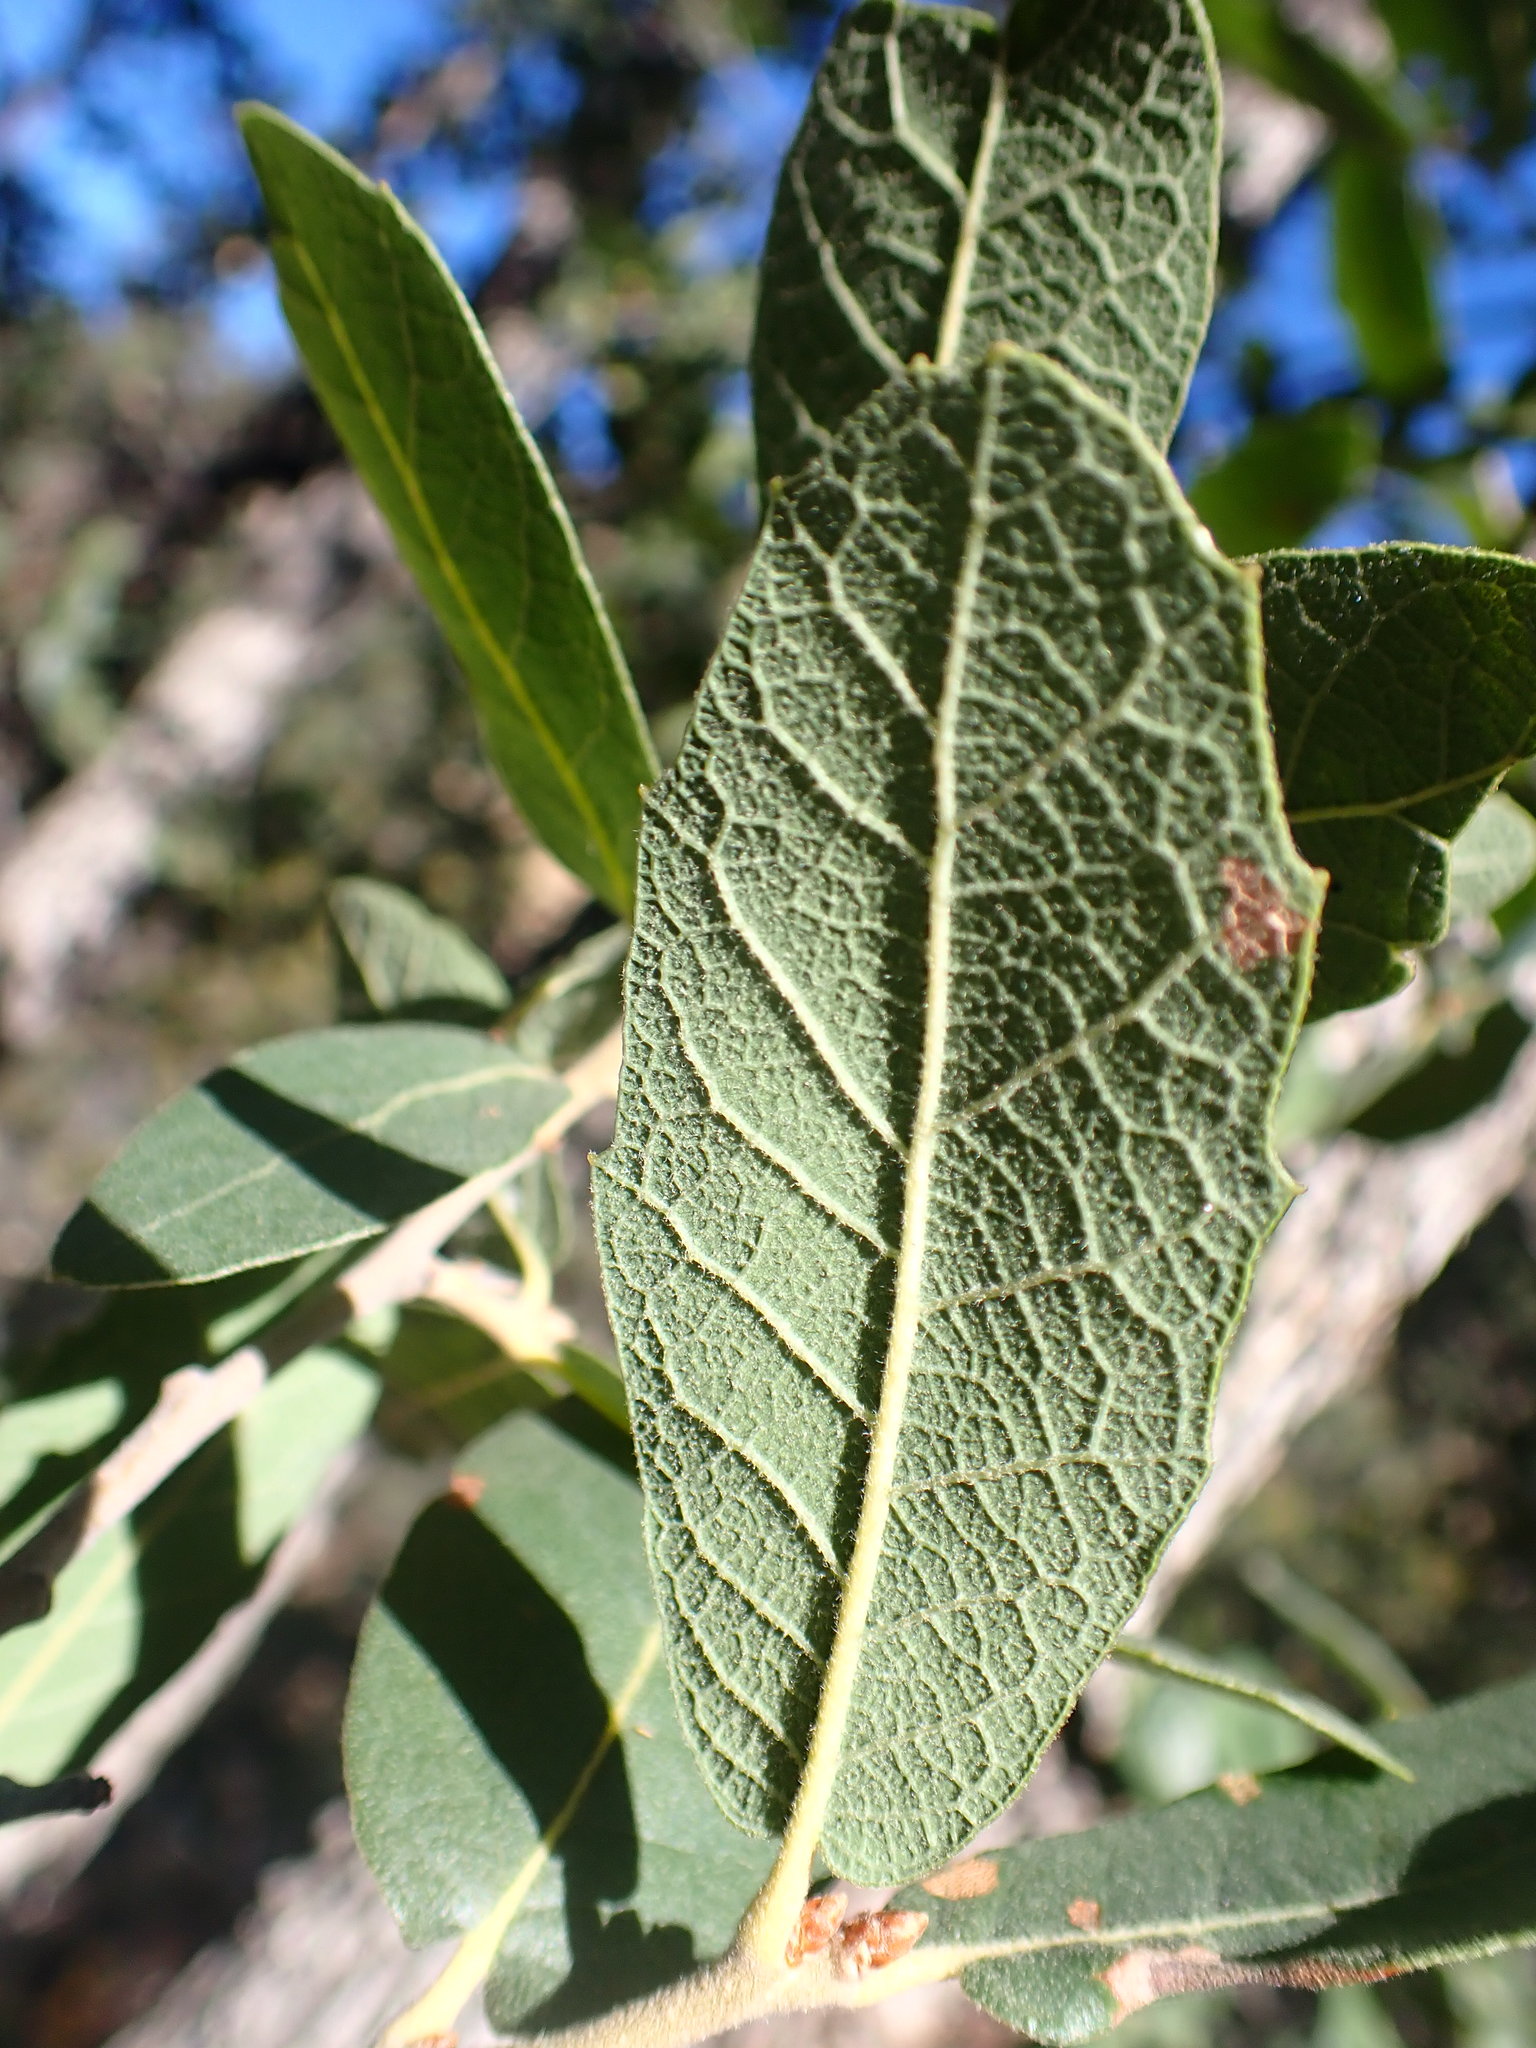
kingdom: Plantae
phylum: Tracheophyta
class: Magnoliopsida
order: Fagales
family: Fagaceae
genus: Quercus
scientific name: Quercus arizonica
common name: Arizona white oak
